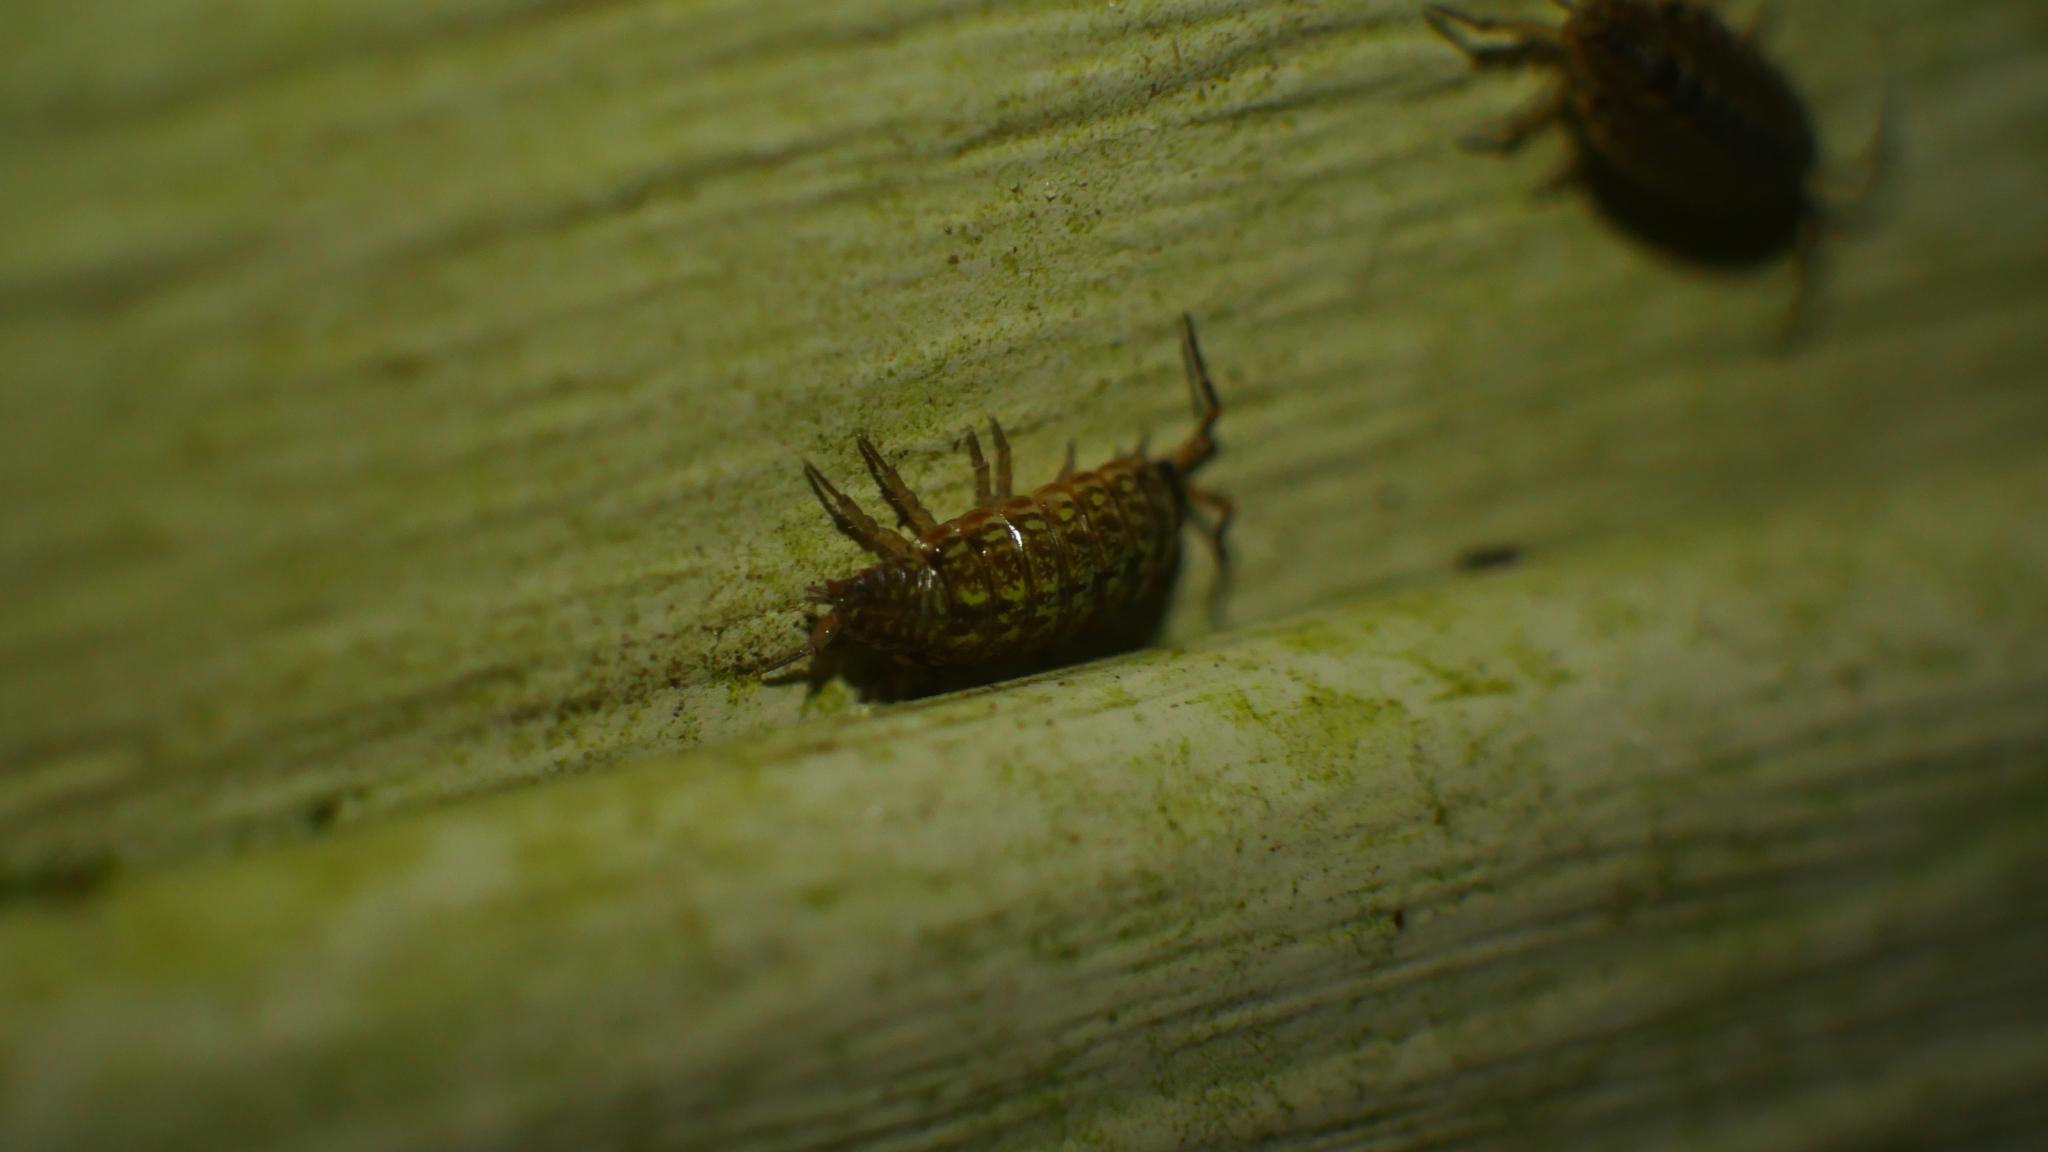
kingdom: Animalia
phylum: Arthropoda
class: Malacostraca
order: Isopoda
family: Philosciidae
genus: Philoscia
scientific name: Philoscia muscorum
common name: Common striped woodlouse
